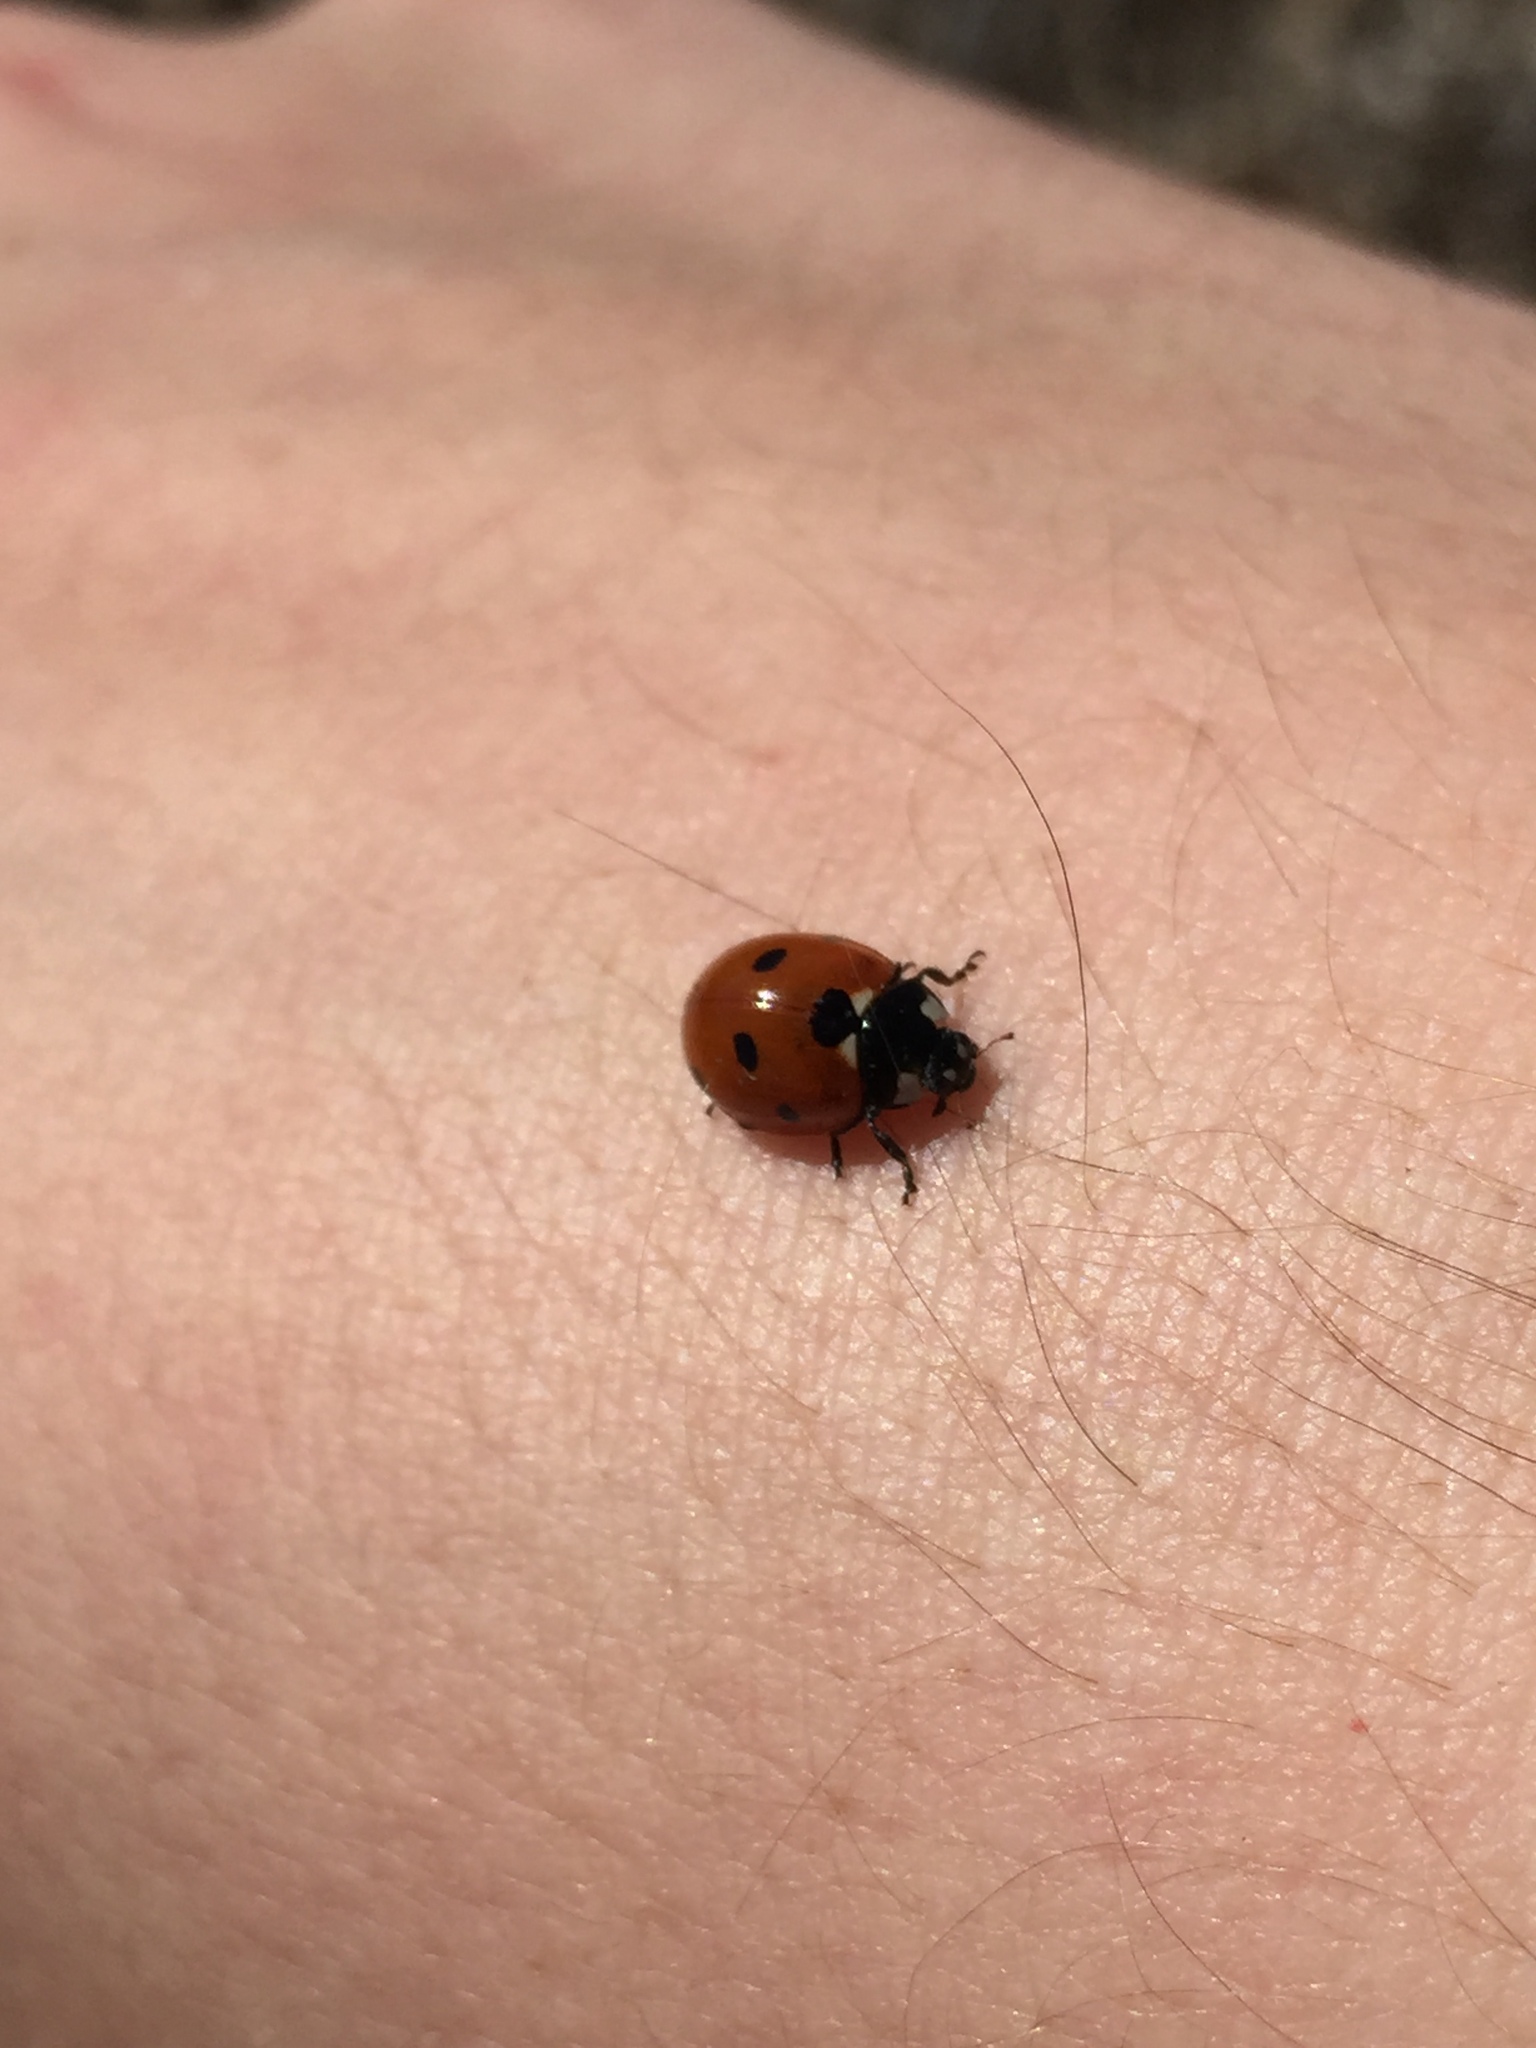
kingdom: Animalia
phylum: Arthropoda
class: Insecta
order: Coleoptera
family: Coccinellidae
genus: Coccinella
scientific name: Coccinella septempunctata
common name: Sevenspotted lady beetle
